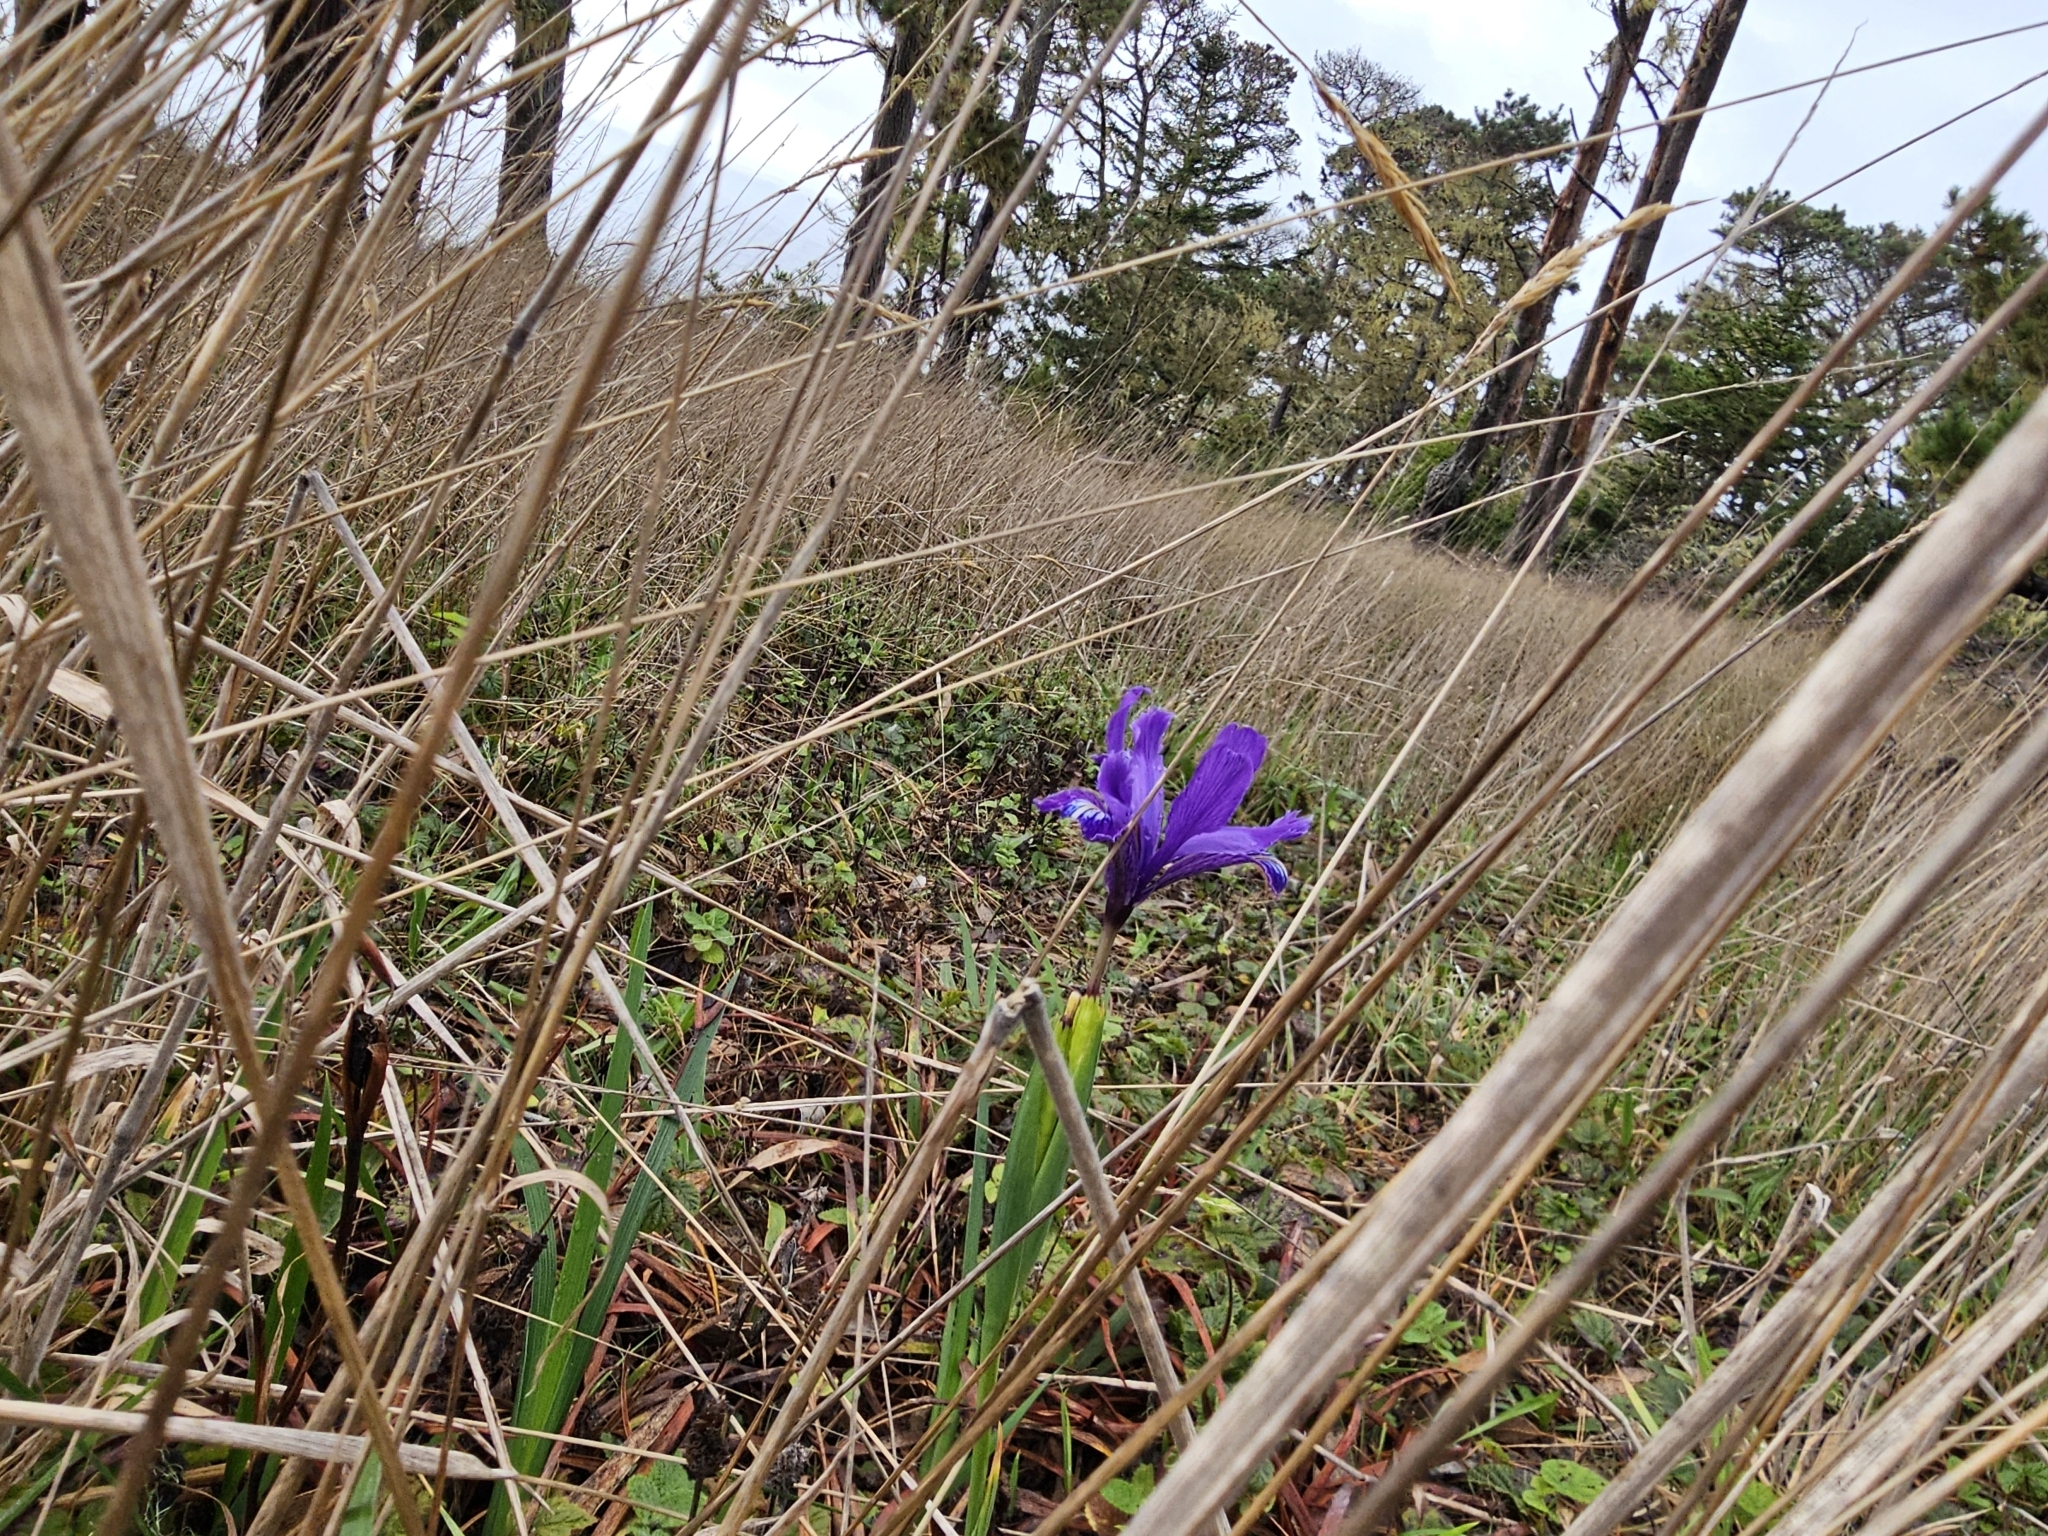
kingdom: Plantae
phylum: Tracheophyta
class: Liliopsida
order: Asparagales
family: Iridaceae
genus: Iris
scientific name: Iris douglasiana
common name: Marin iris
